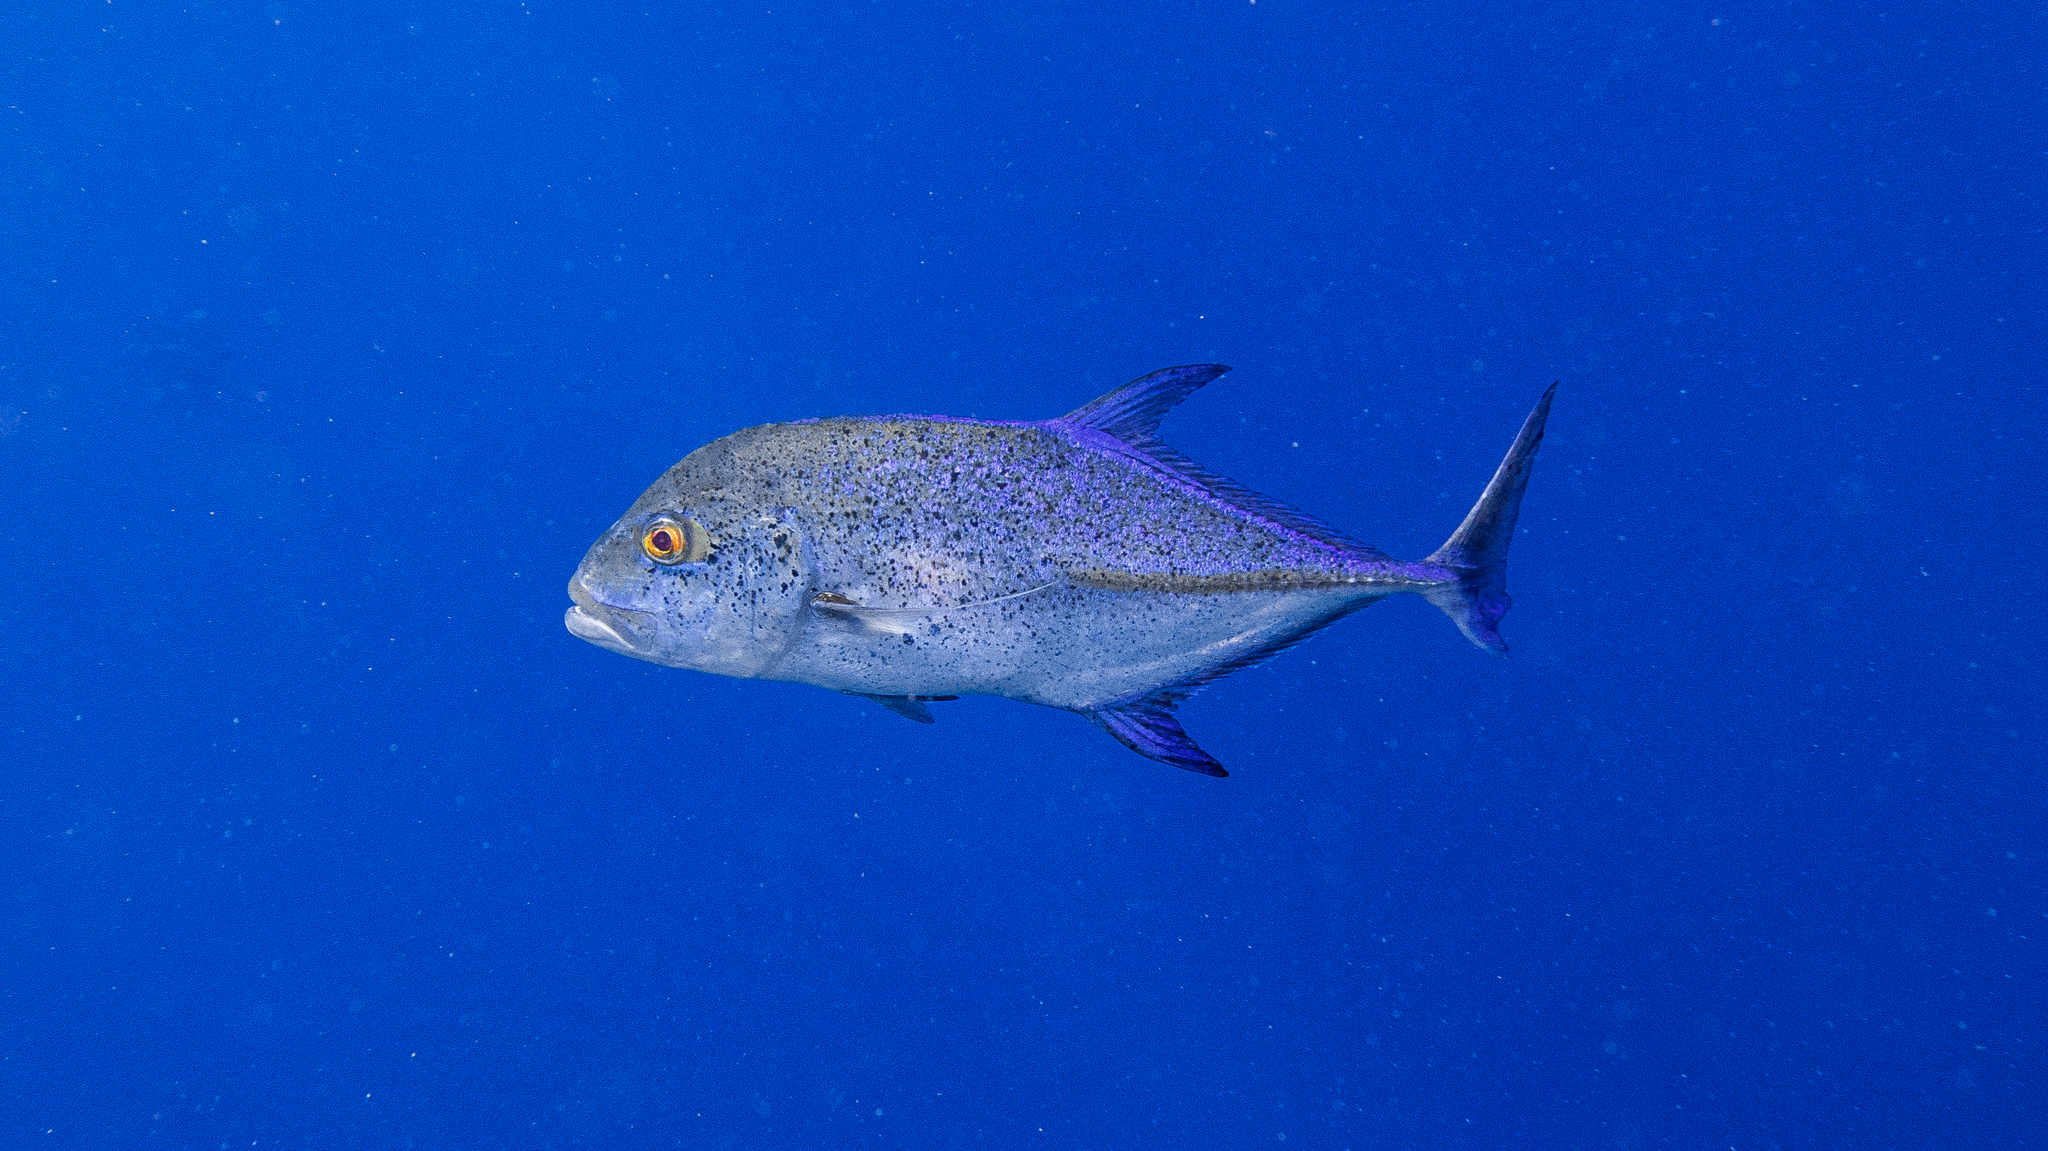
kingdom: Animalia
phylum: Chordata
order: Perciformes
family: Carangidae
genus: Caranx
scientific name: Caranx melampygus
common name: Bluefin trevally
